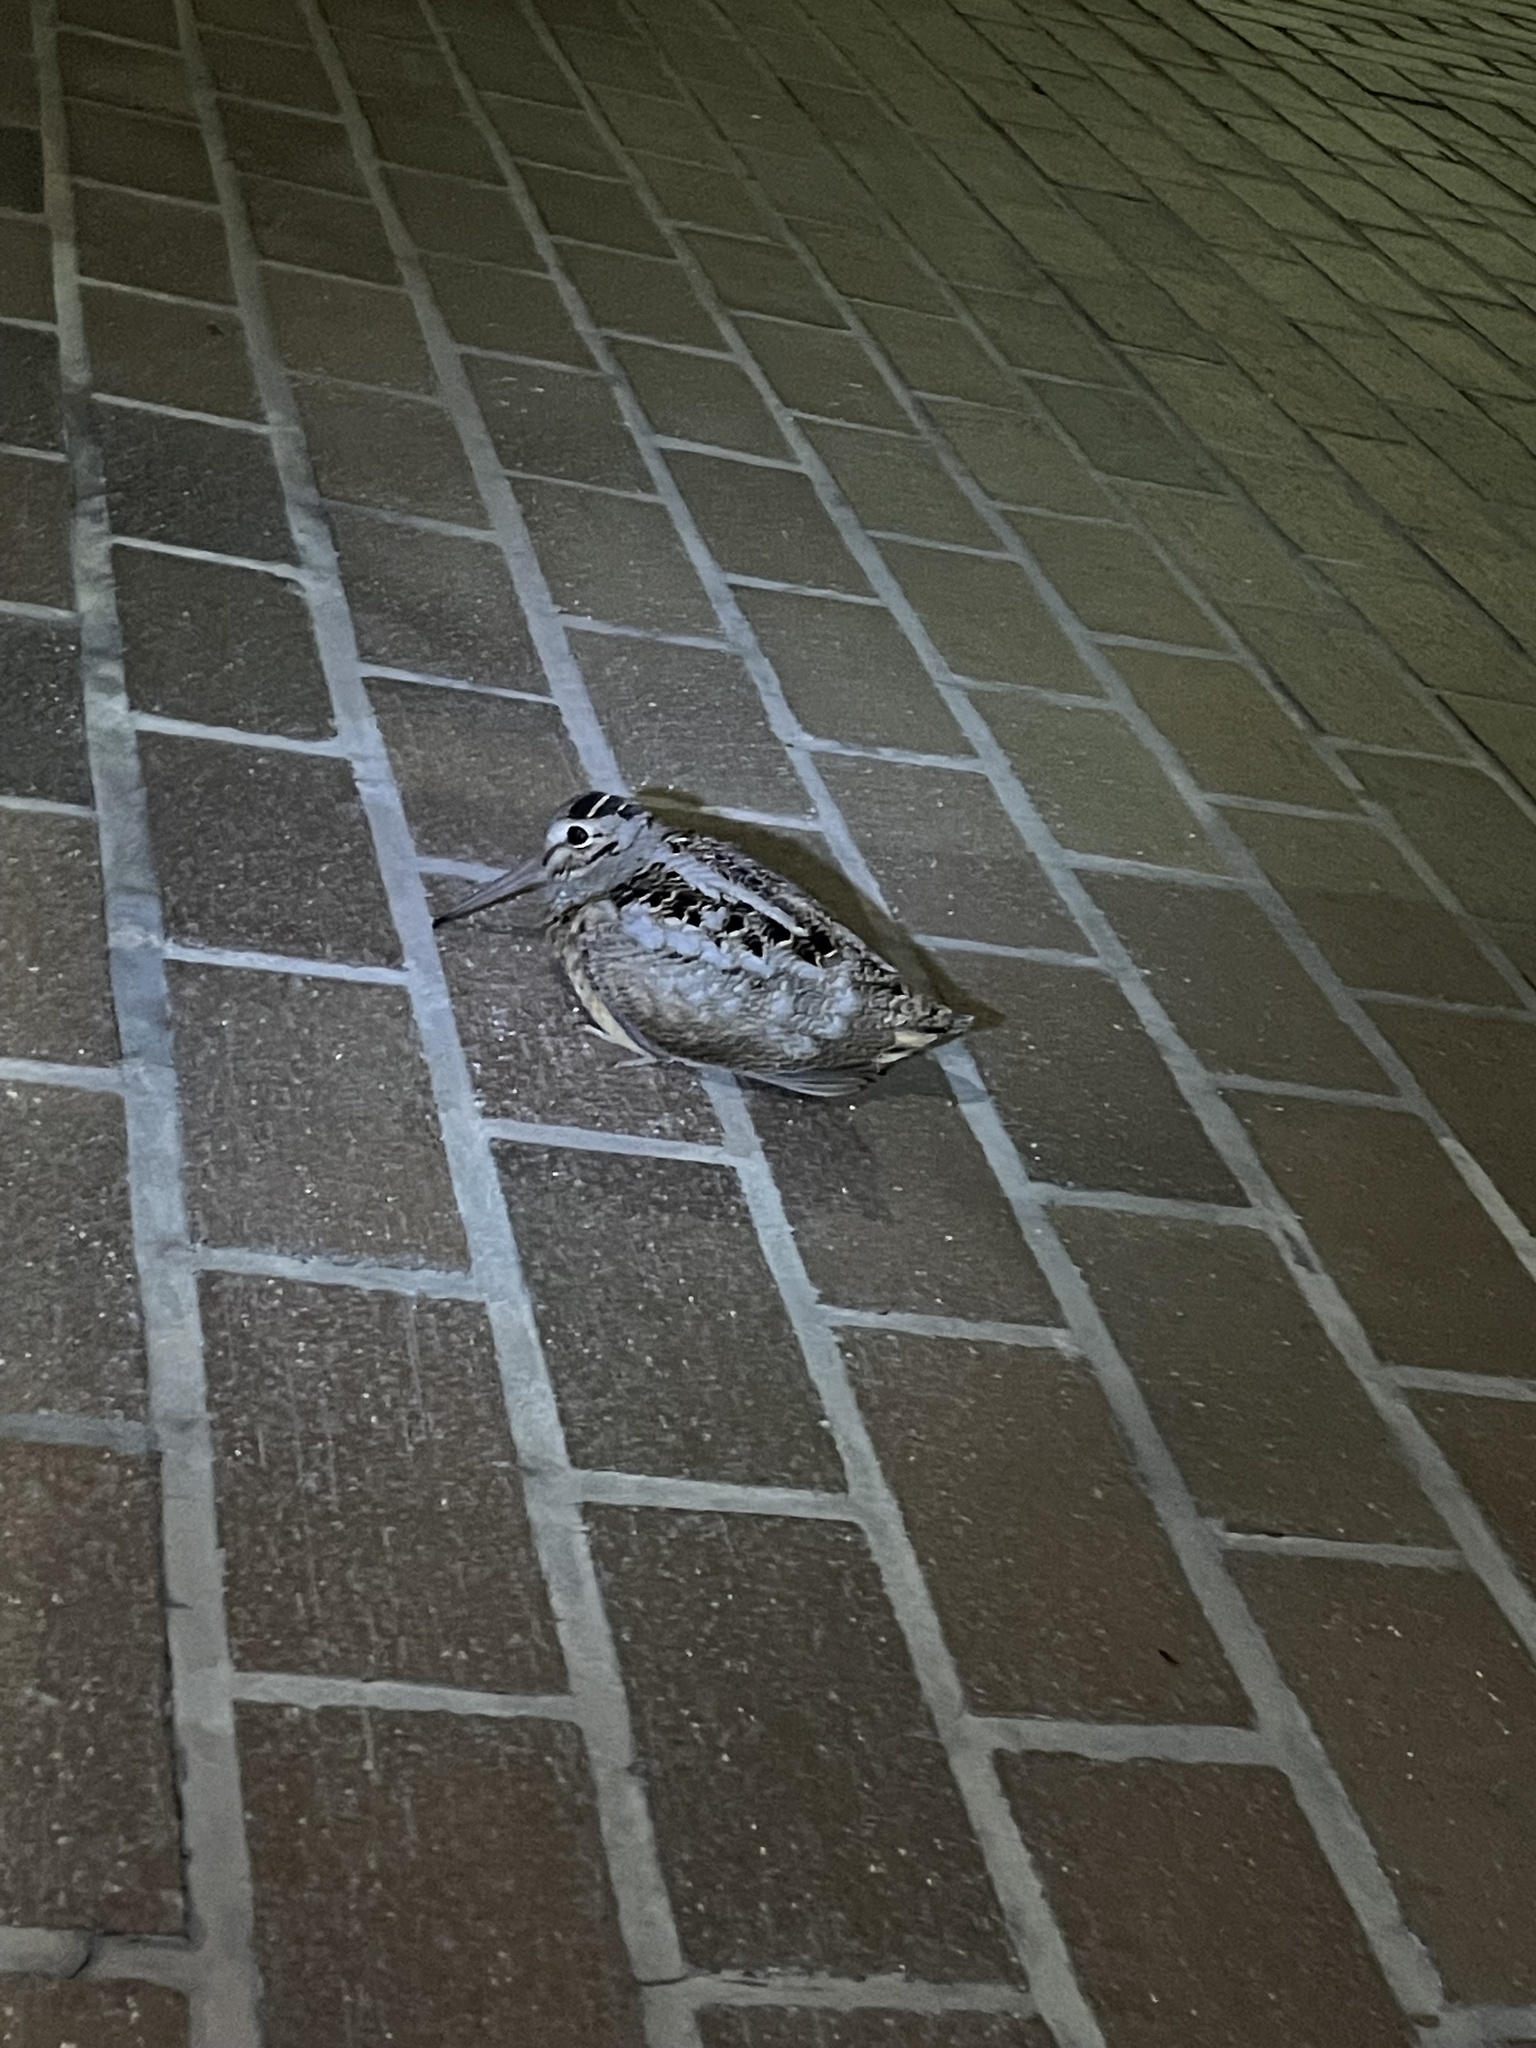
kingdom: Animalia
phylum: Chordata
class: Aves
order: Charadriiformes
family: Scolopacidae
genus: Scolopax
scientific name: Scolopax minor
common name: American woodcock
